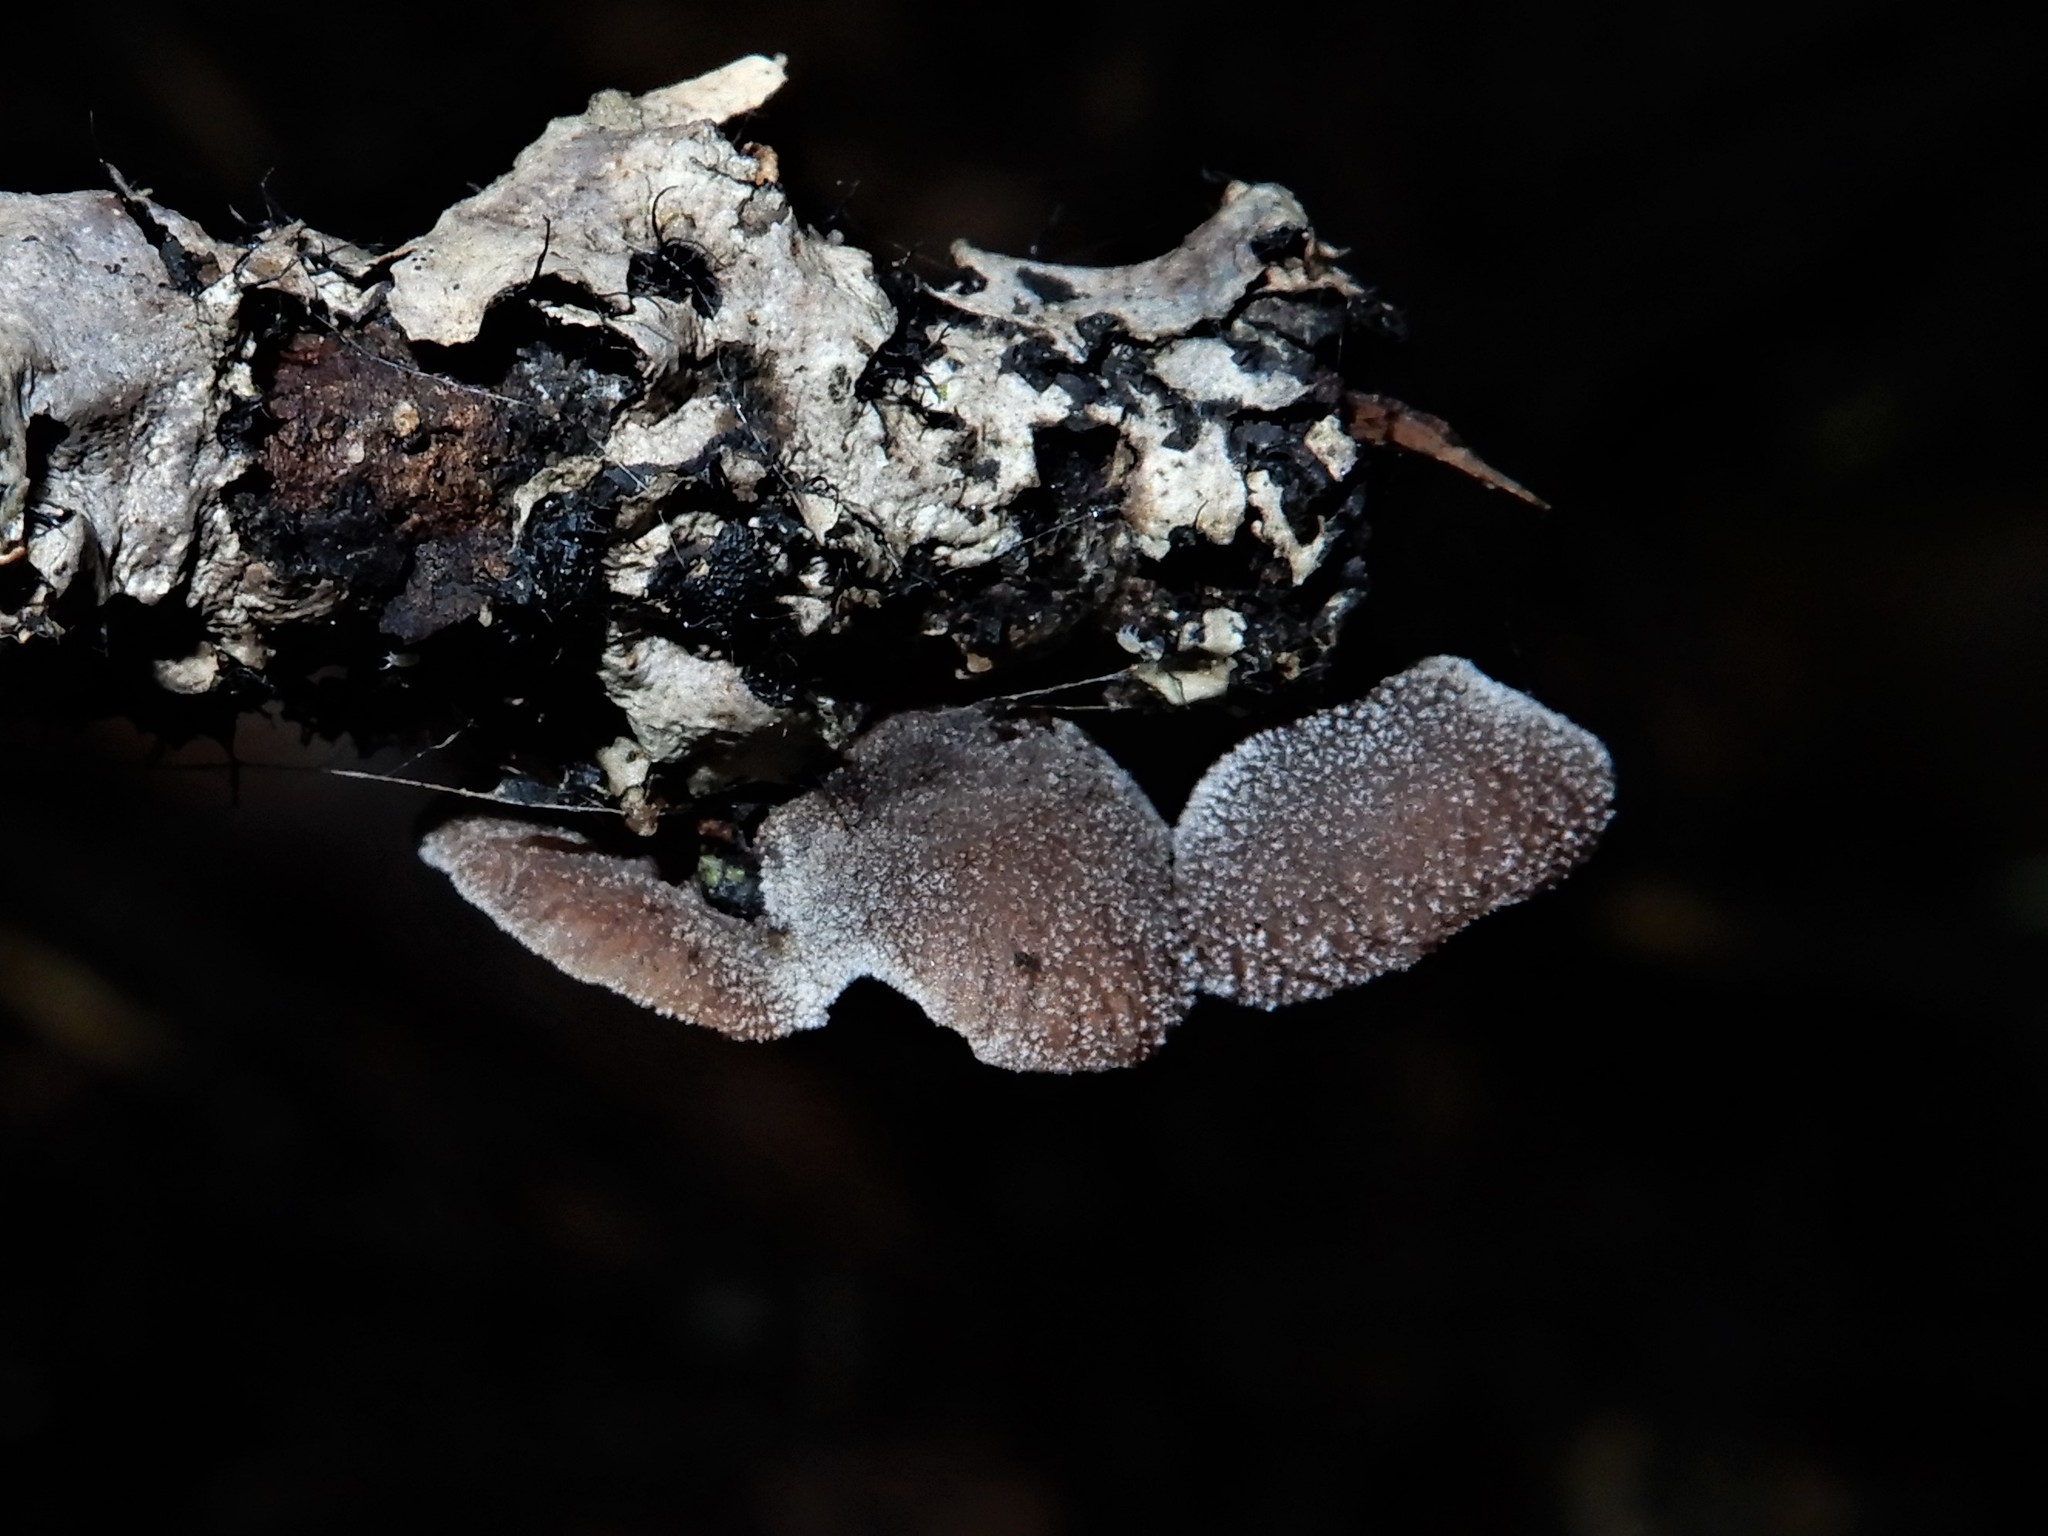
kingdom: Fungi
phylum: Basidiomycota
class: Agaricomycetes
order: Agaricales
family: Omphalotaceae
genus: Marasmiellus
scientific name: Marasmiellus violaceogriseus
